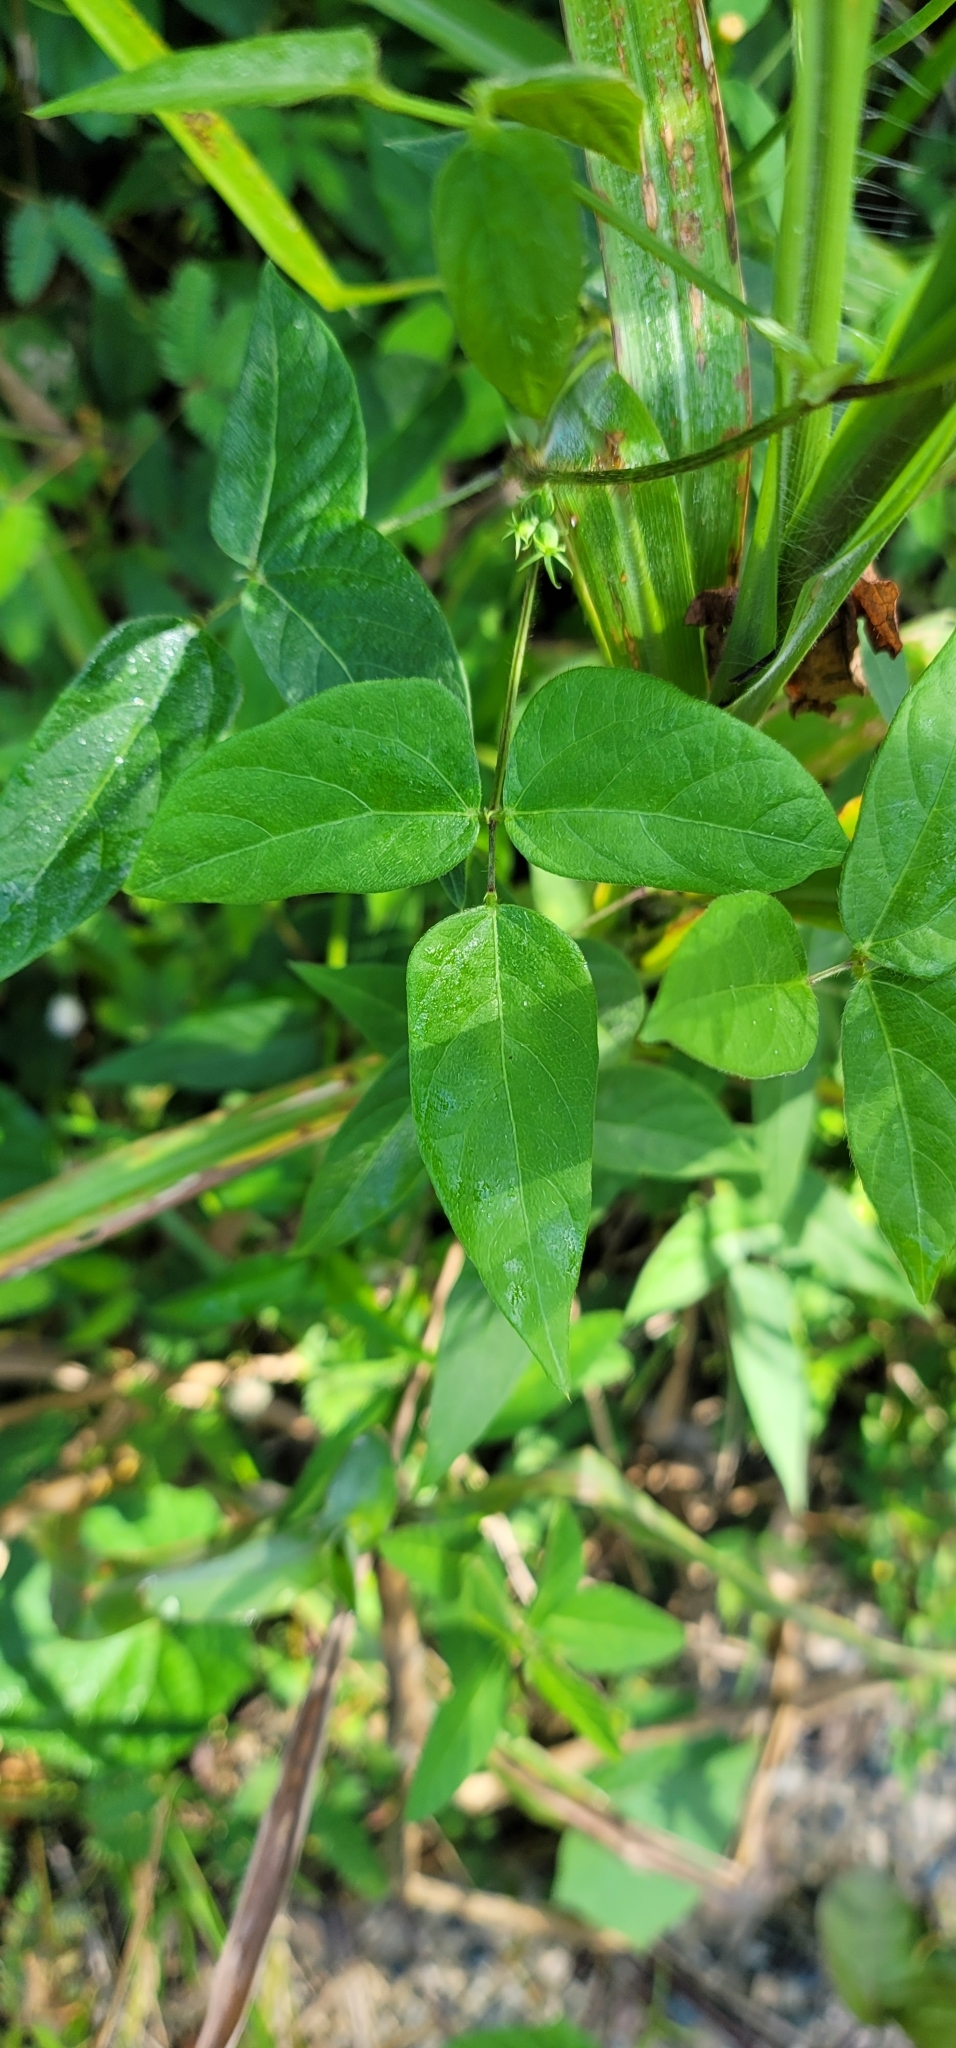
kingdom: Plantae
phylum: Tracheophyta
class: Magnoliopsida
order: Fabales
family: Fabaceae
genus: Vigna
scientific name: Vigna vexillata
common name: Zombi pea
